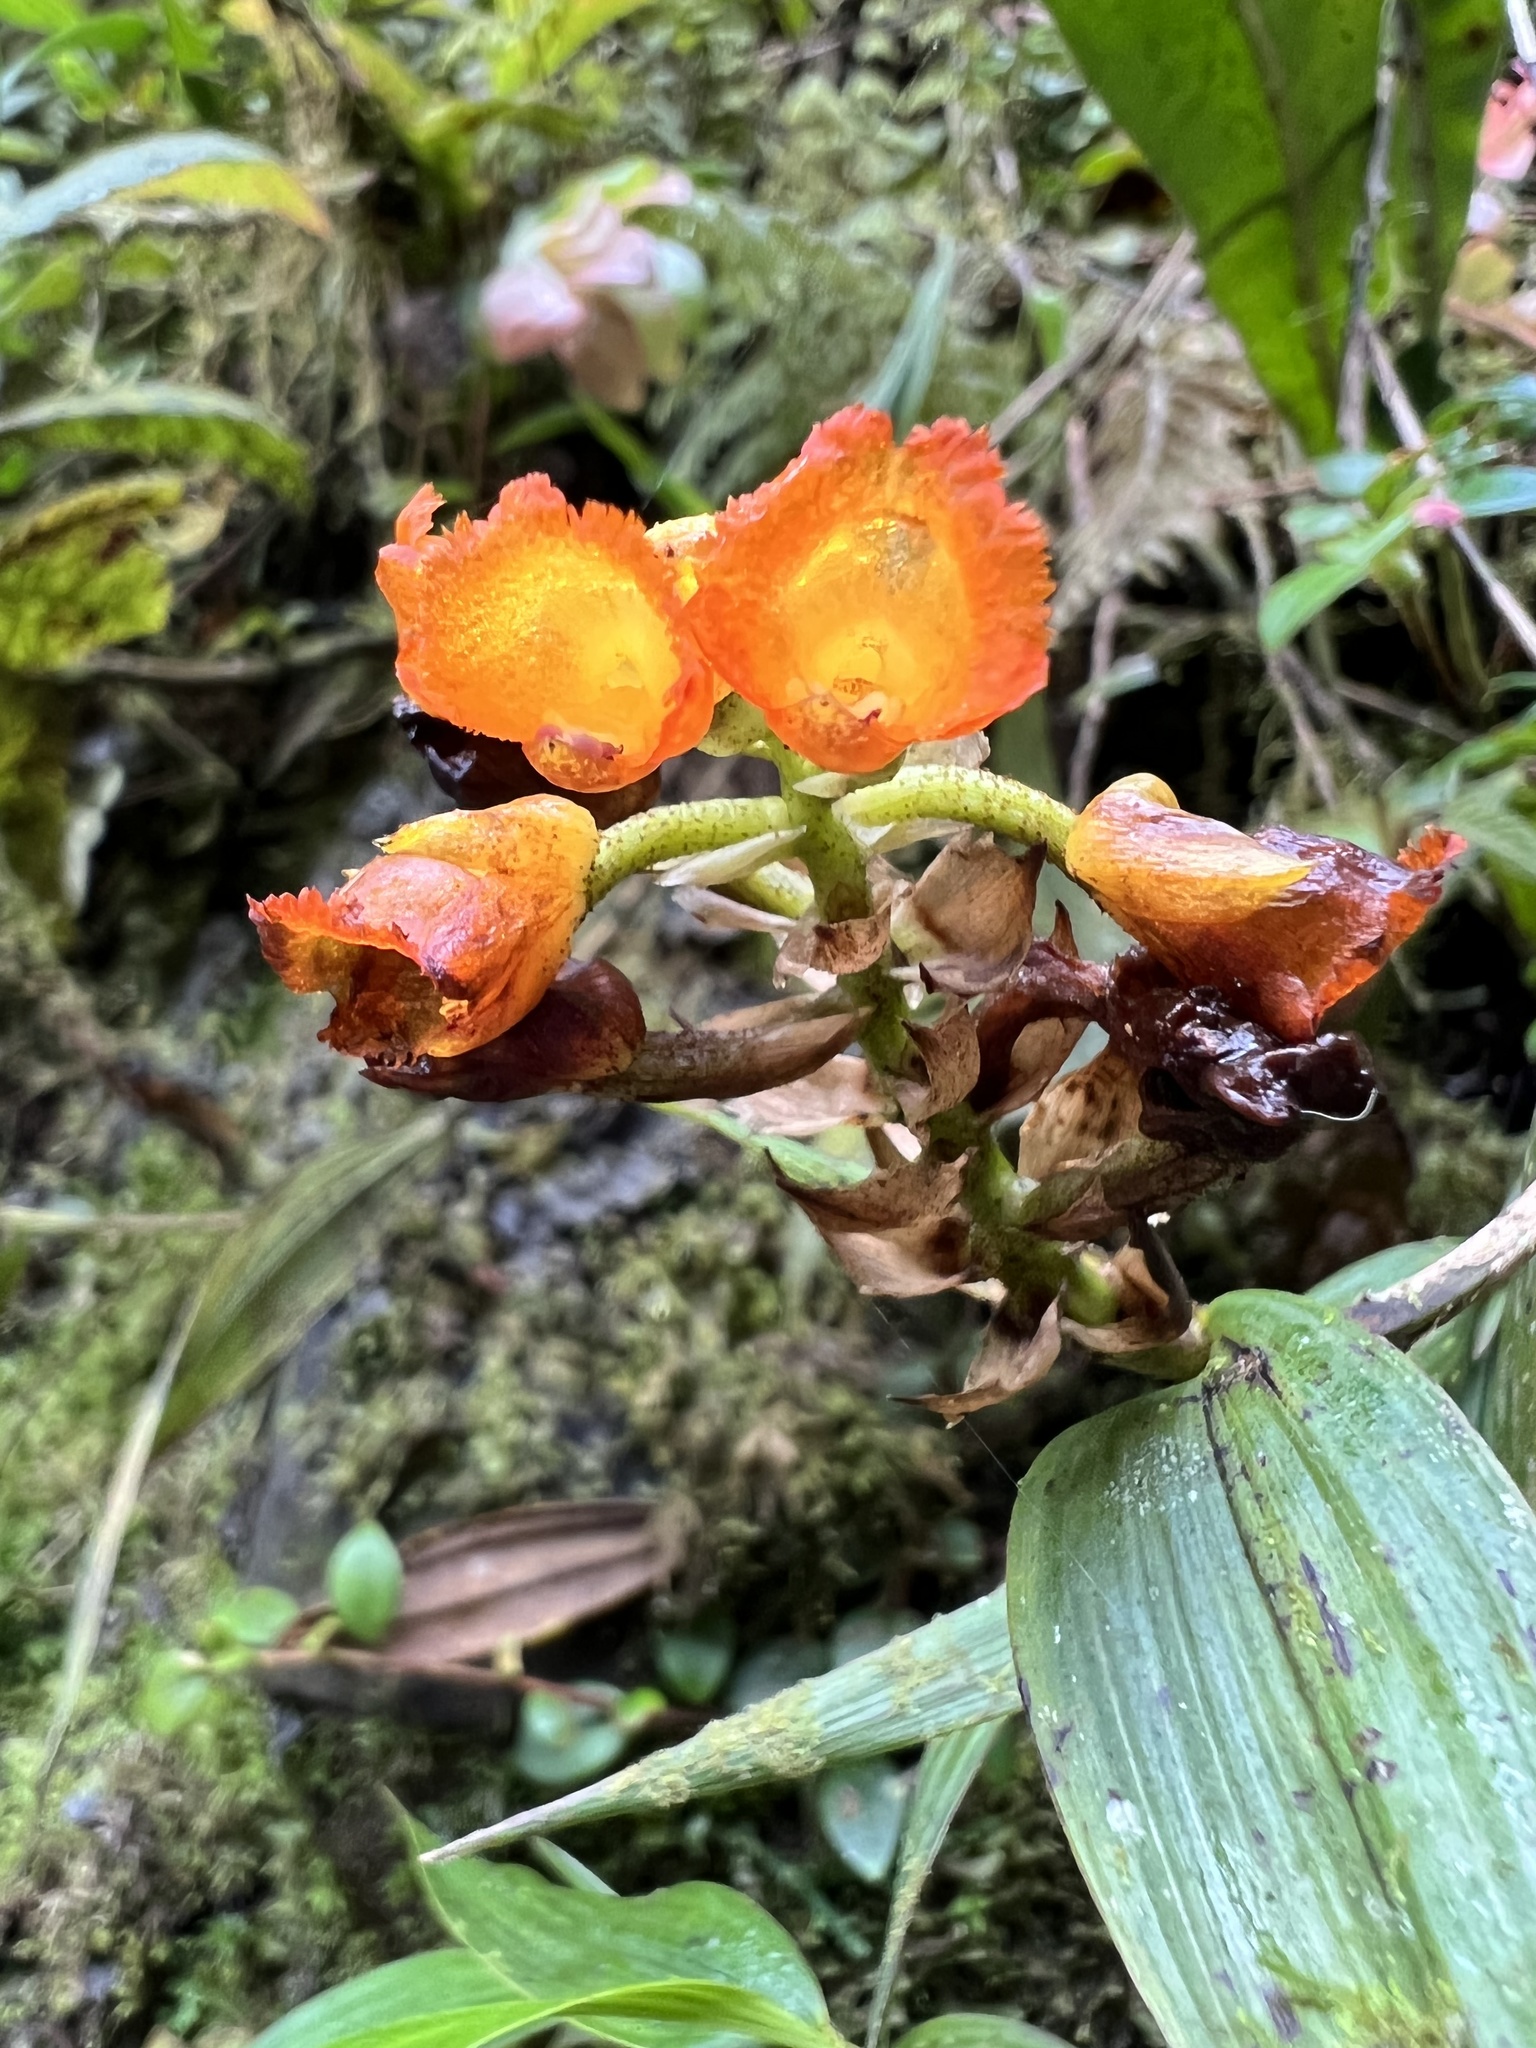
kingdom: Plantae
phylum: Tracheophyta
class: Liliopsida
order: Asparagales
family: Orchidaceae
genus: Elleanthus
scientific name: Elleanthus aurantiacus
